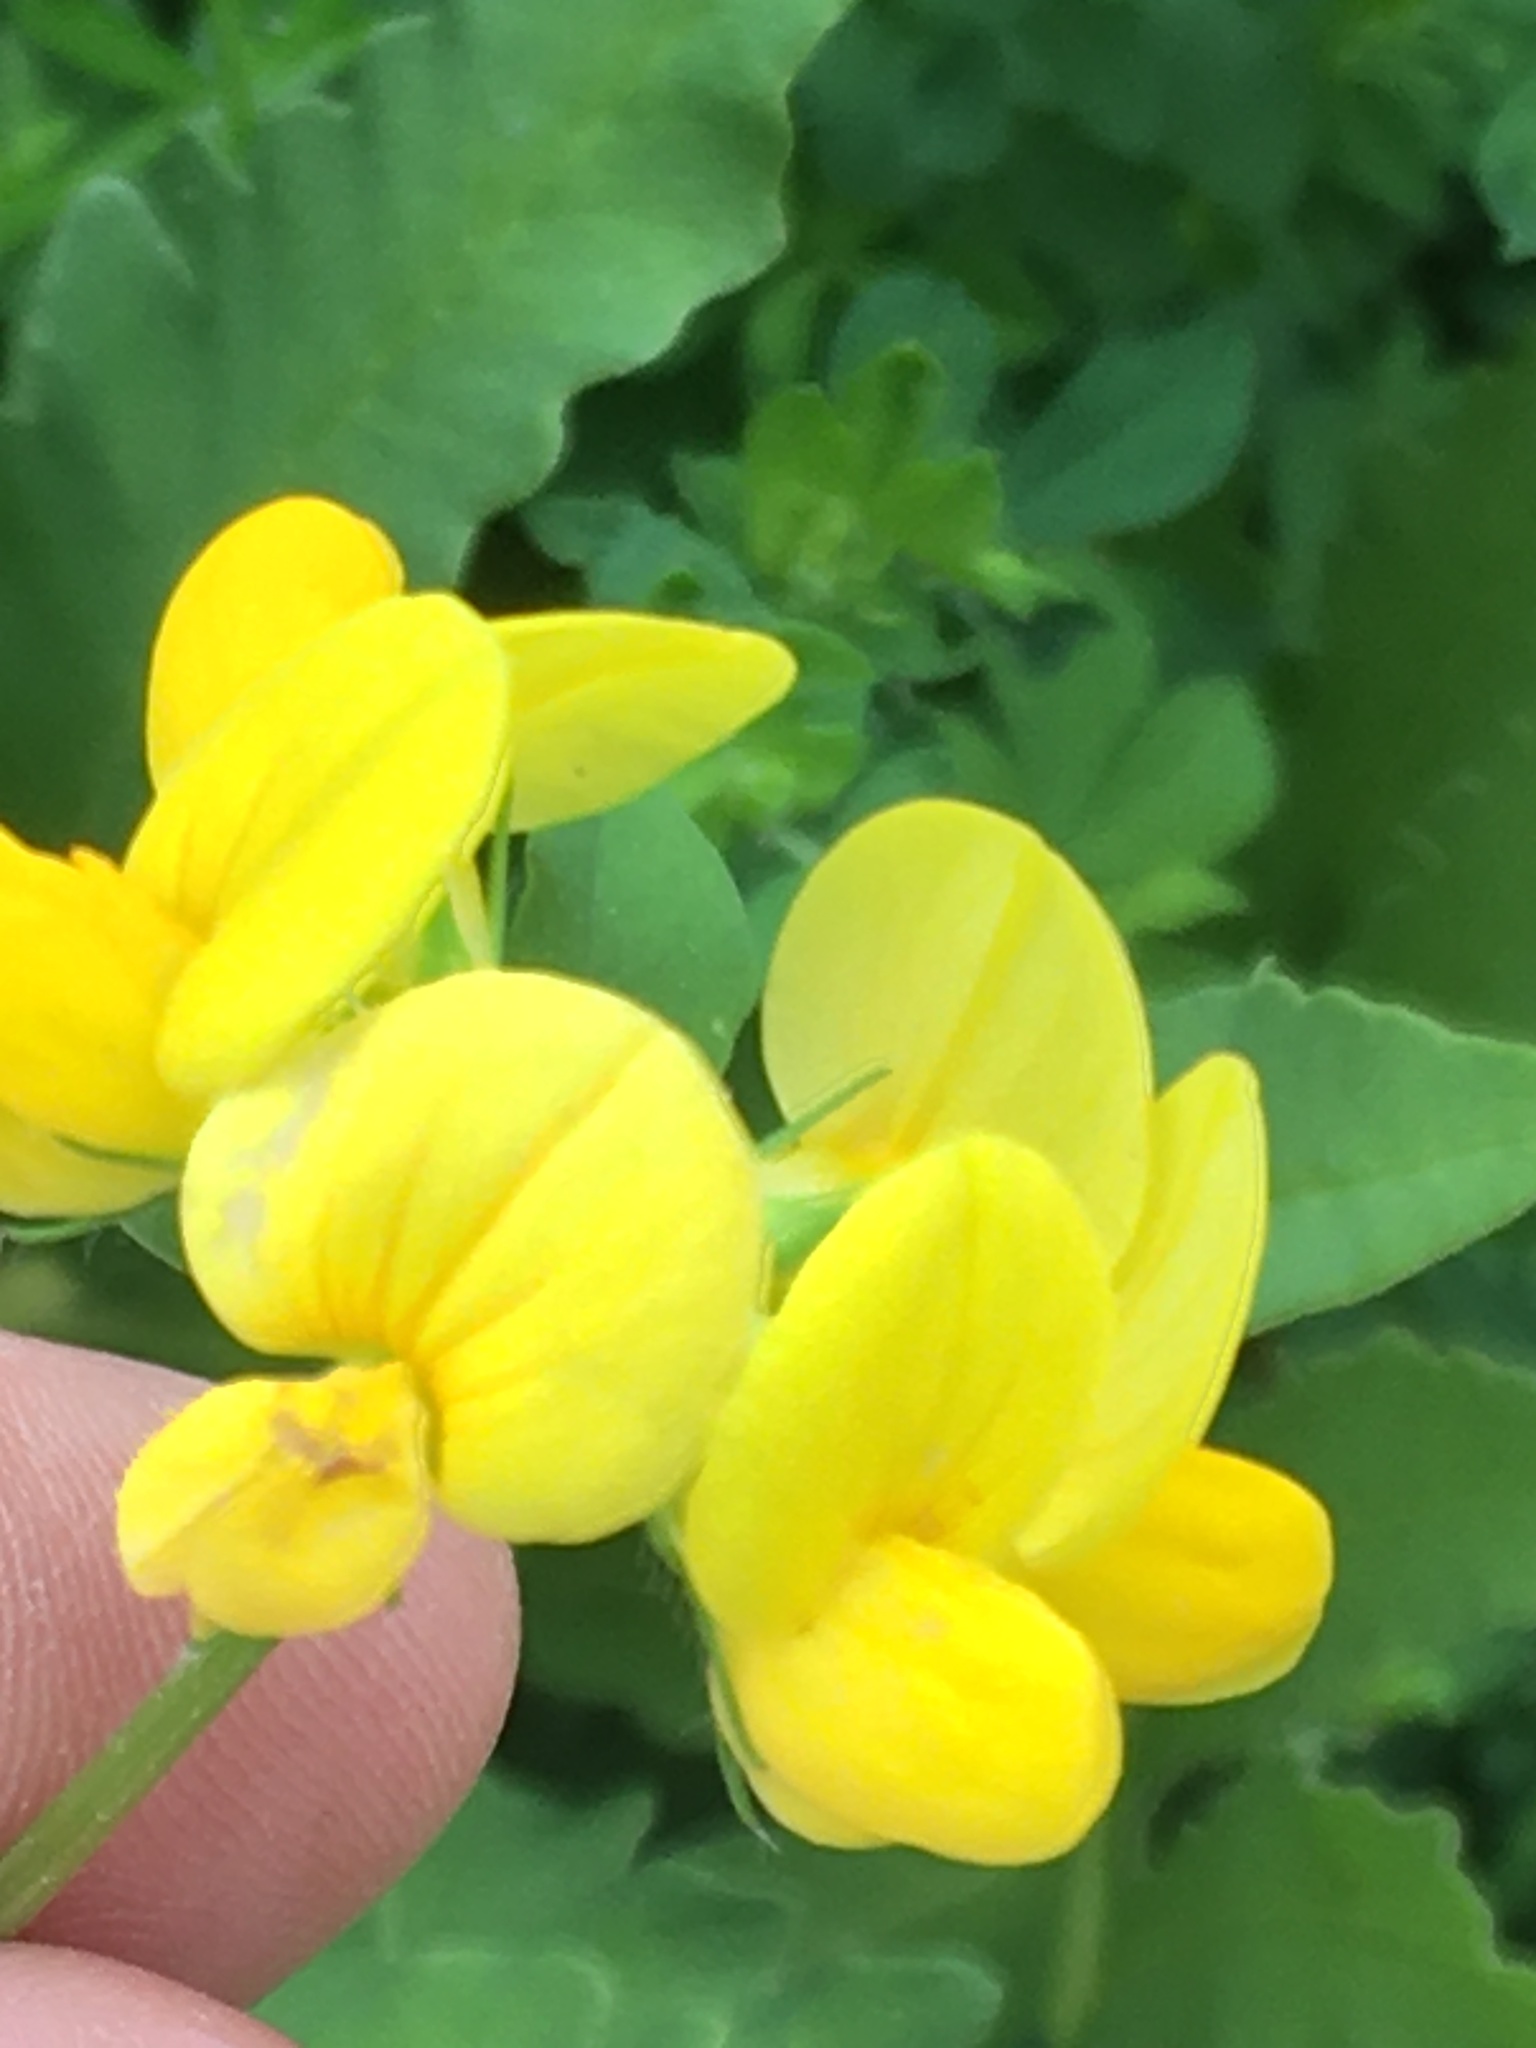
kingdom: Plantae
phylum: Tracheophyta
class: Magnoliopsida
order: Fabales
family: Fabaceae
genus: Lotus
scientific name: Lotus corniculatus
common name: Common bird's-foot-trefoil
